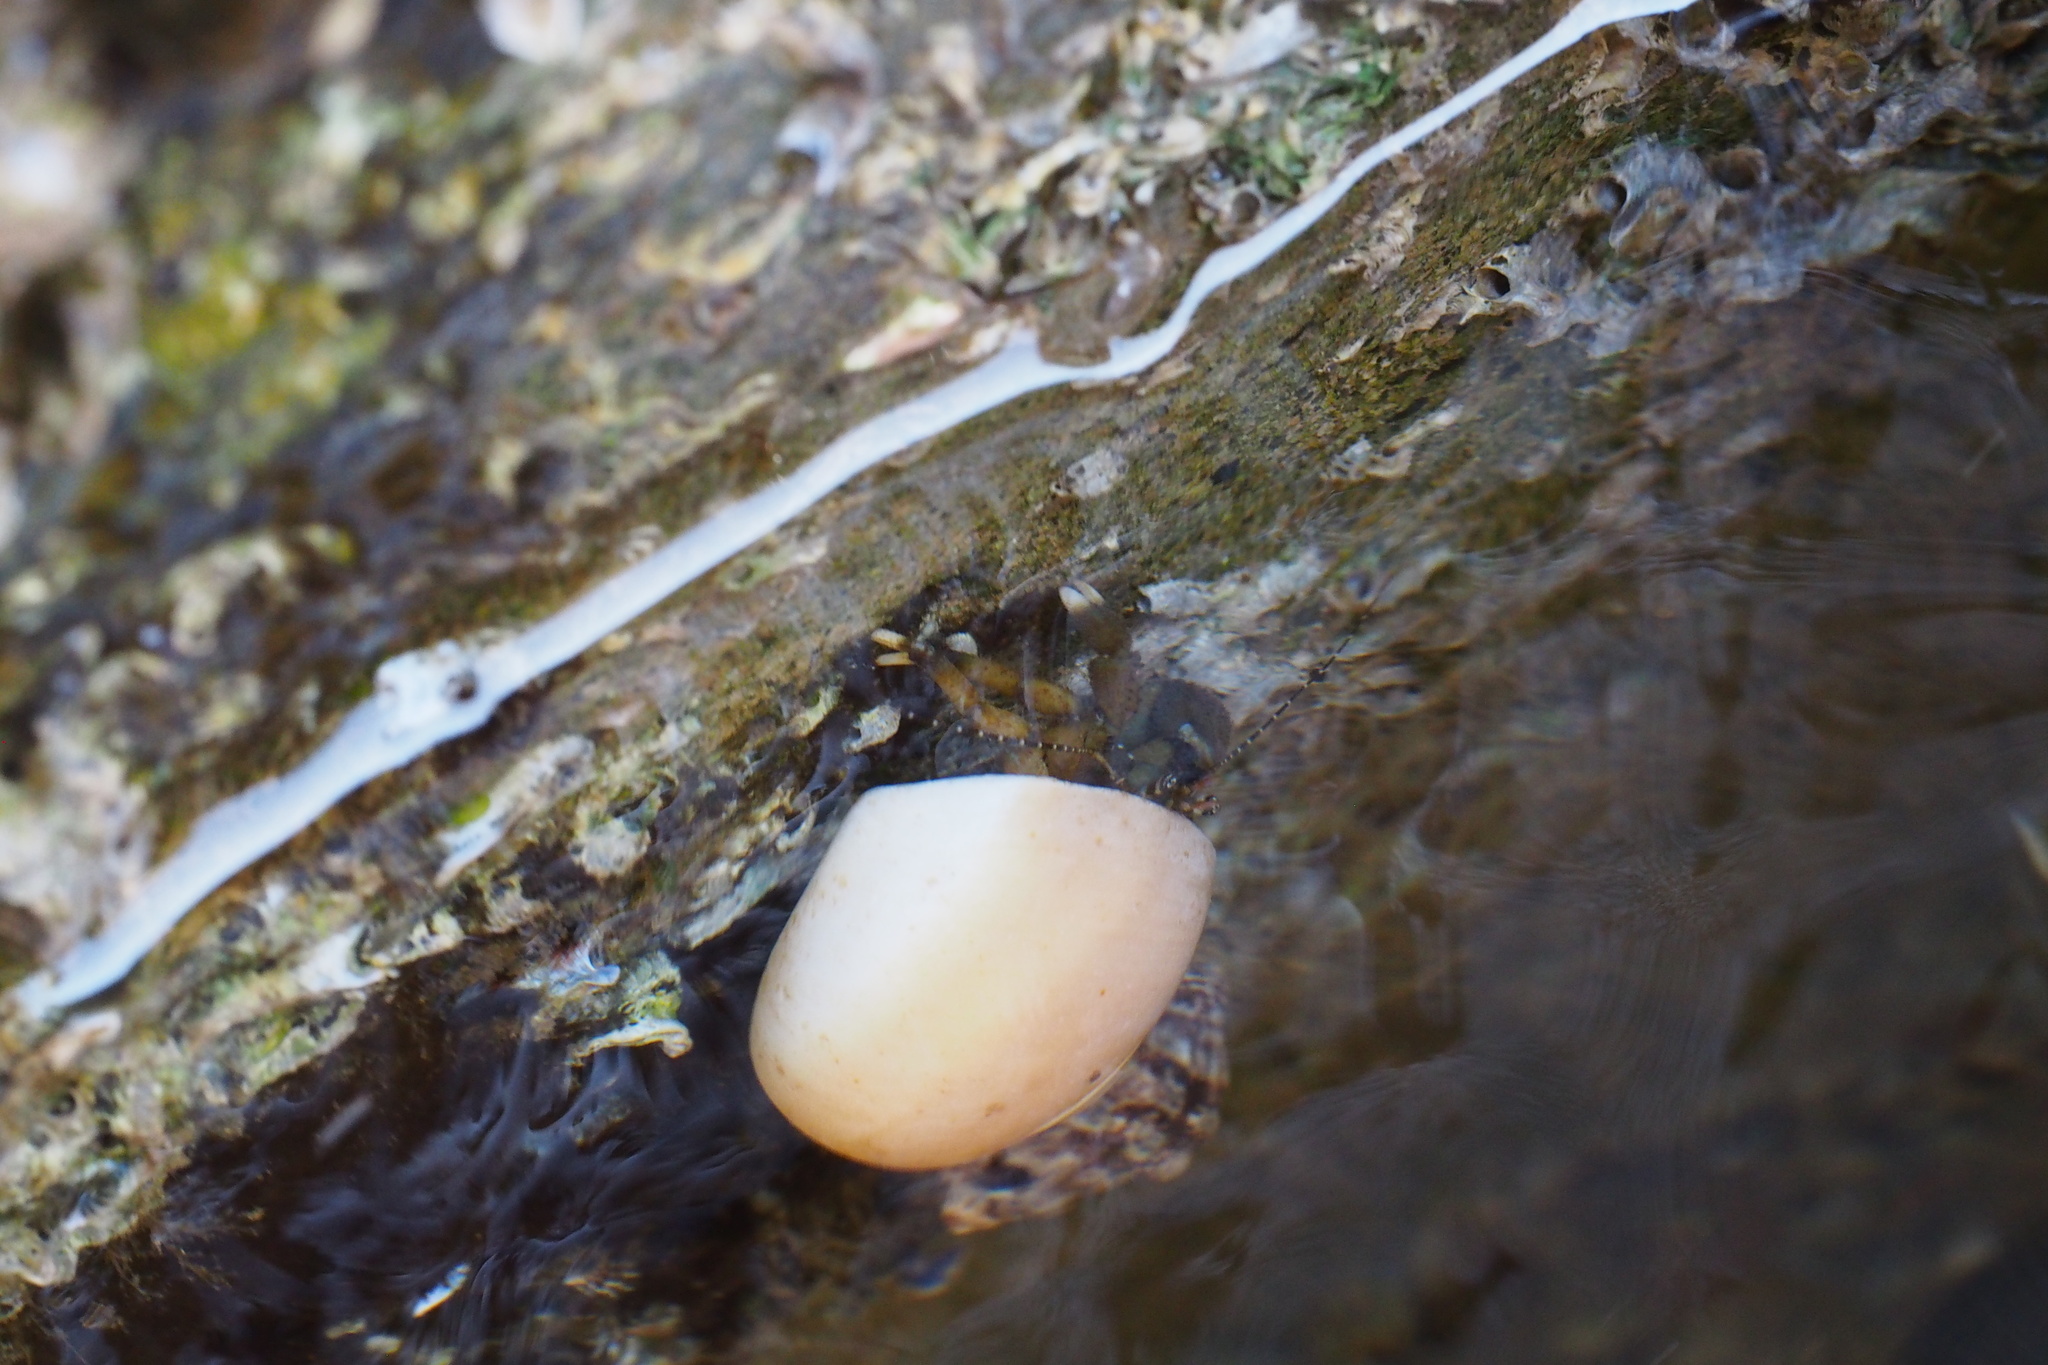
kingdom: Animalia
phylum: Arthropoda
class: Malacostraca
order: Decapoda
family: Paguridae
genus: Pagurus
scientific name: Pagurus filholi
